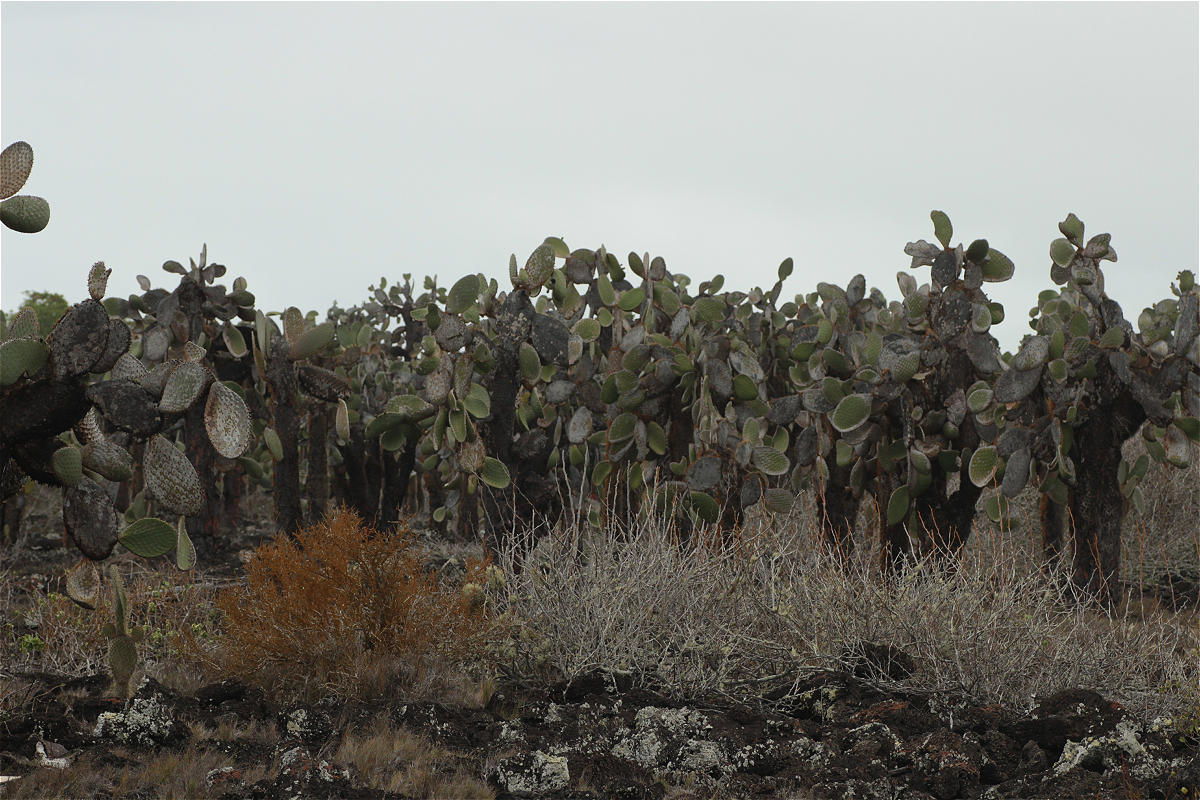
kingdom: Plantae
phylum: Tracheophyta
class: Magnoliopsida
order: Caryophyllales
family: Cactaceae
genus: Opuntia
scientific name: Opuntia galapageia
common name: Galápagos prickly pear
